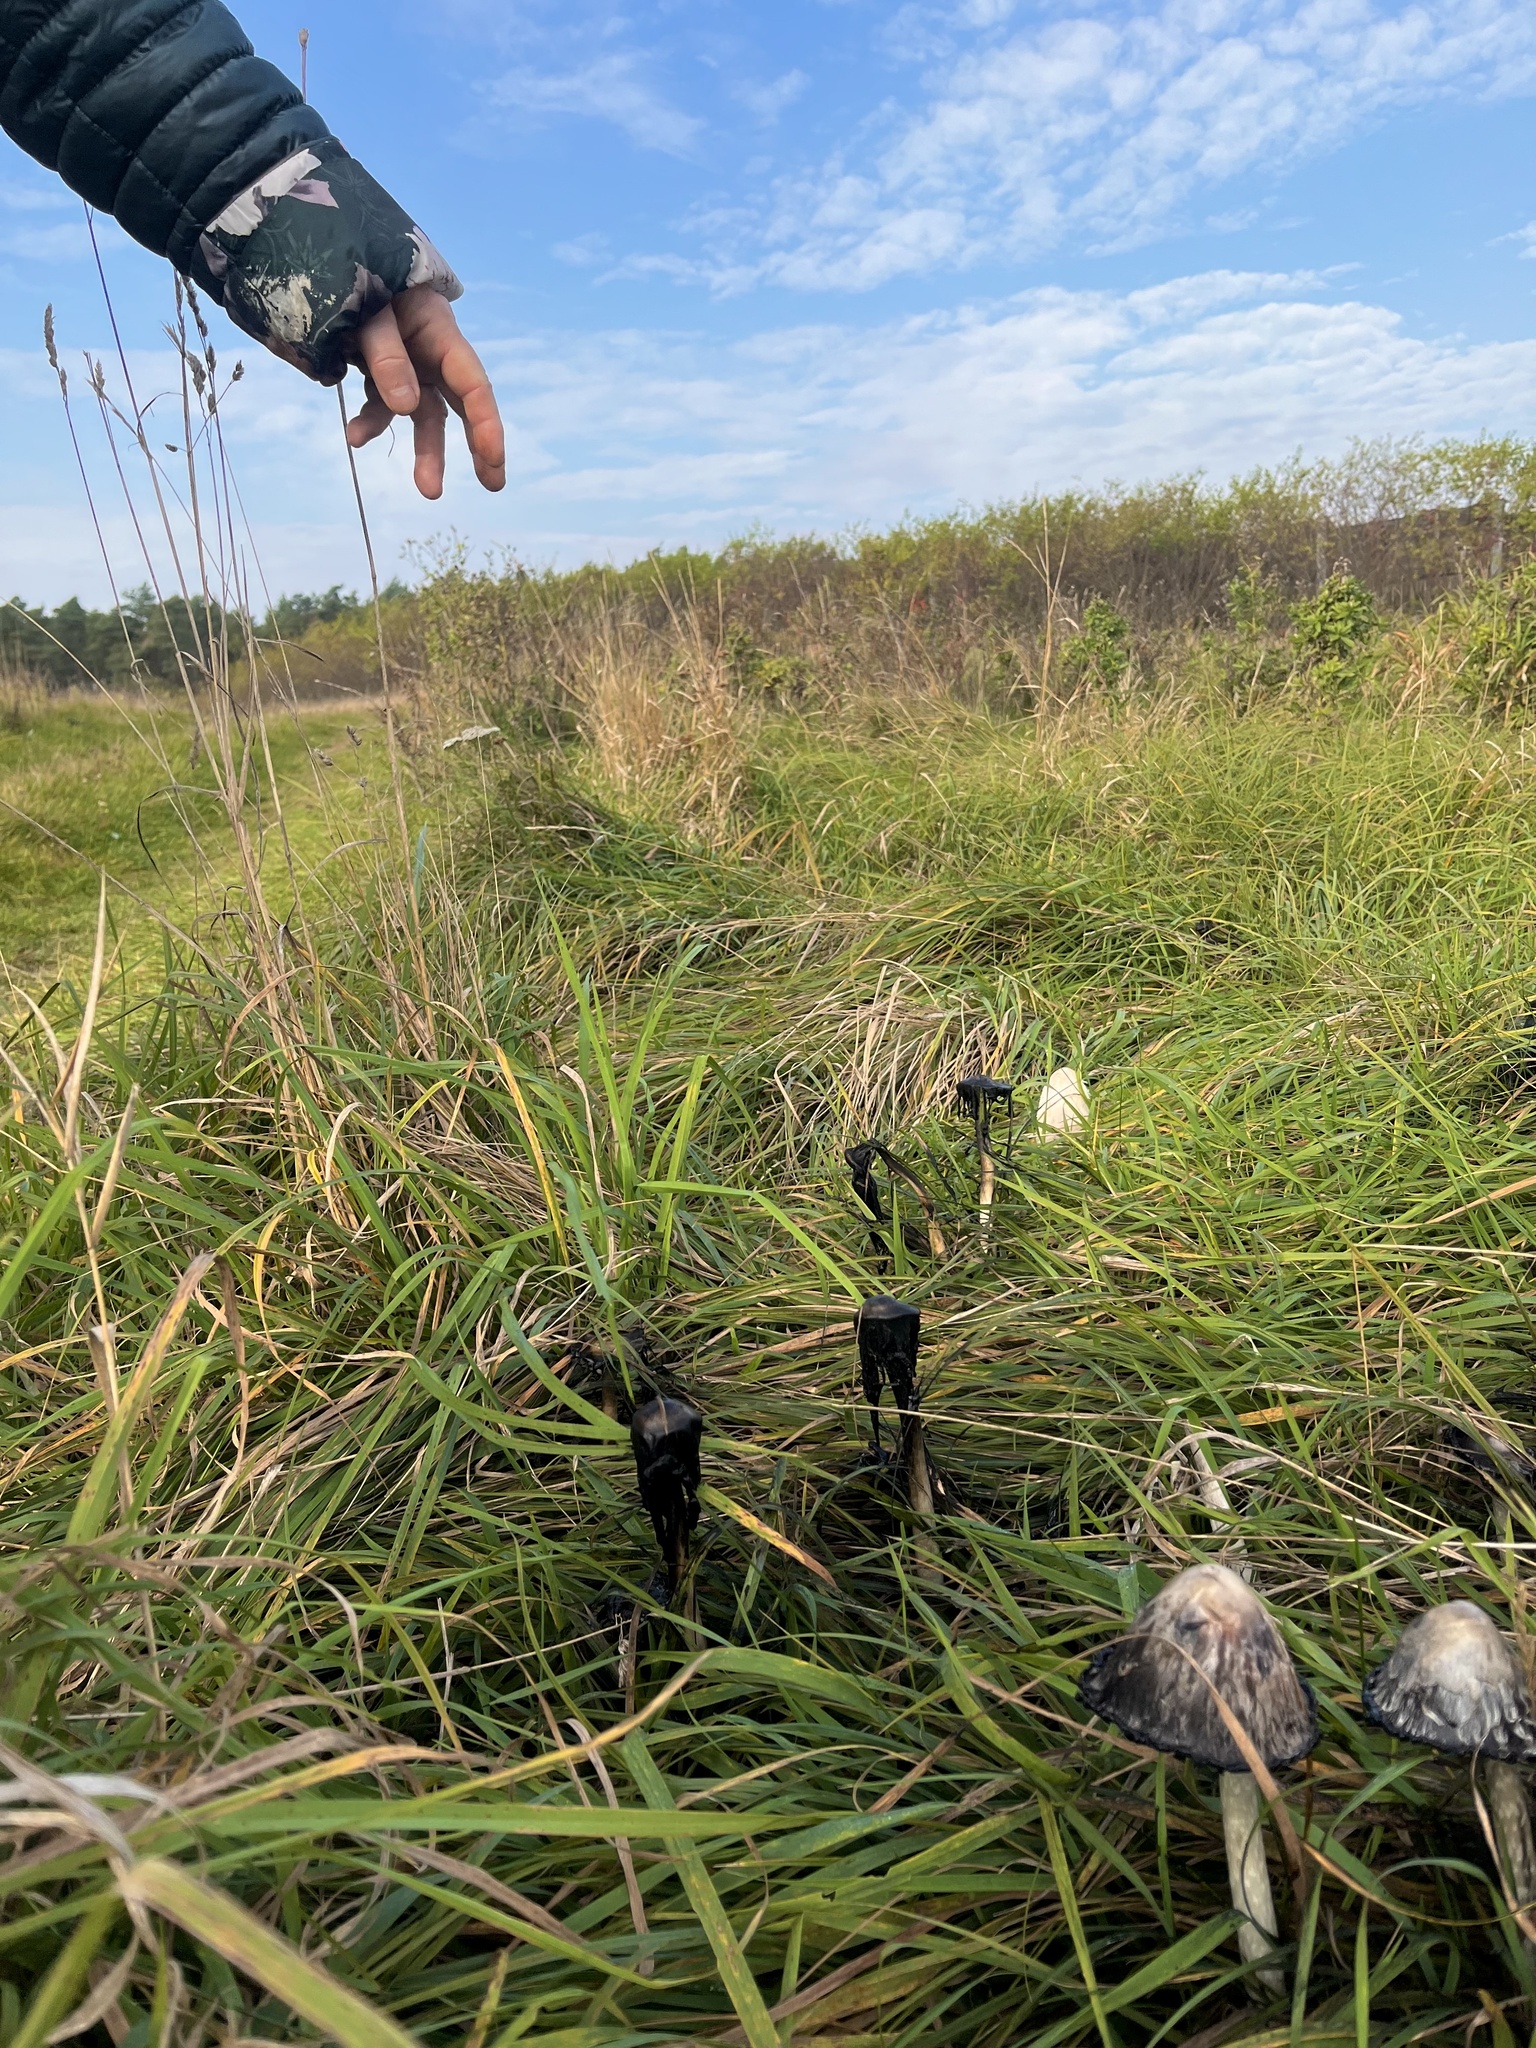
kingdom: Fungi
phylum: Basidiomycota
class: Agaricomycetes
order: Agaricales
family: Agaricaceae
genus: Coprinus
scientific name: Coprinus comatus
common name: Lawyer's wig
